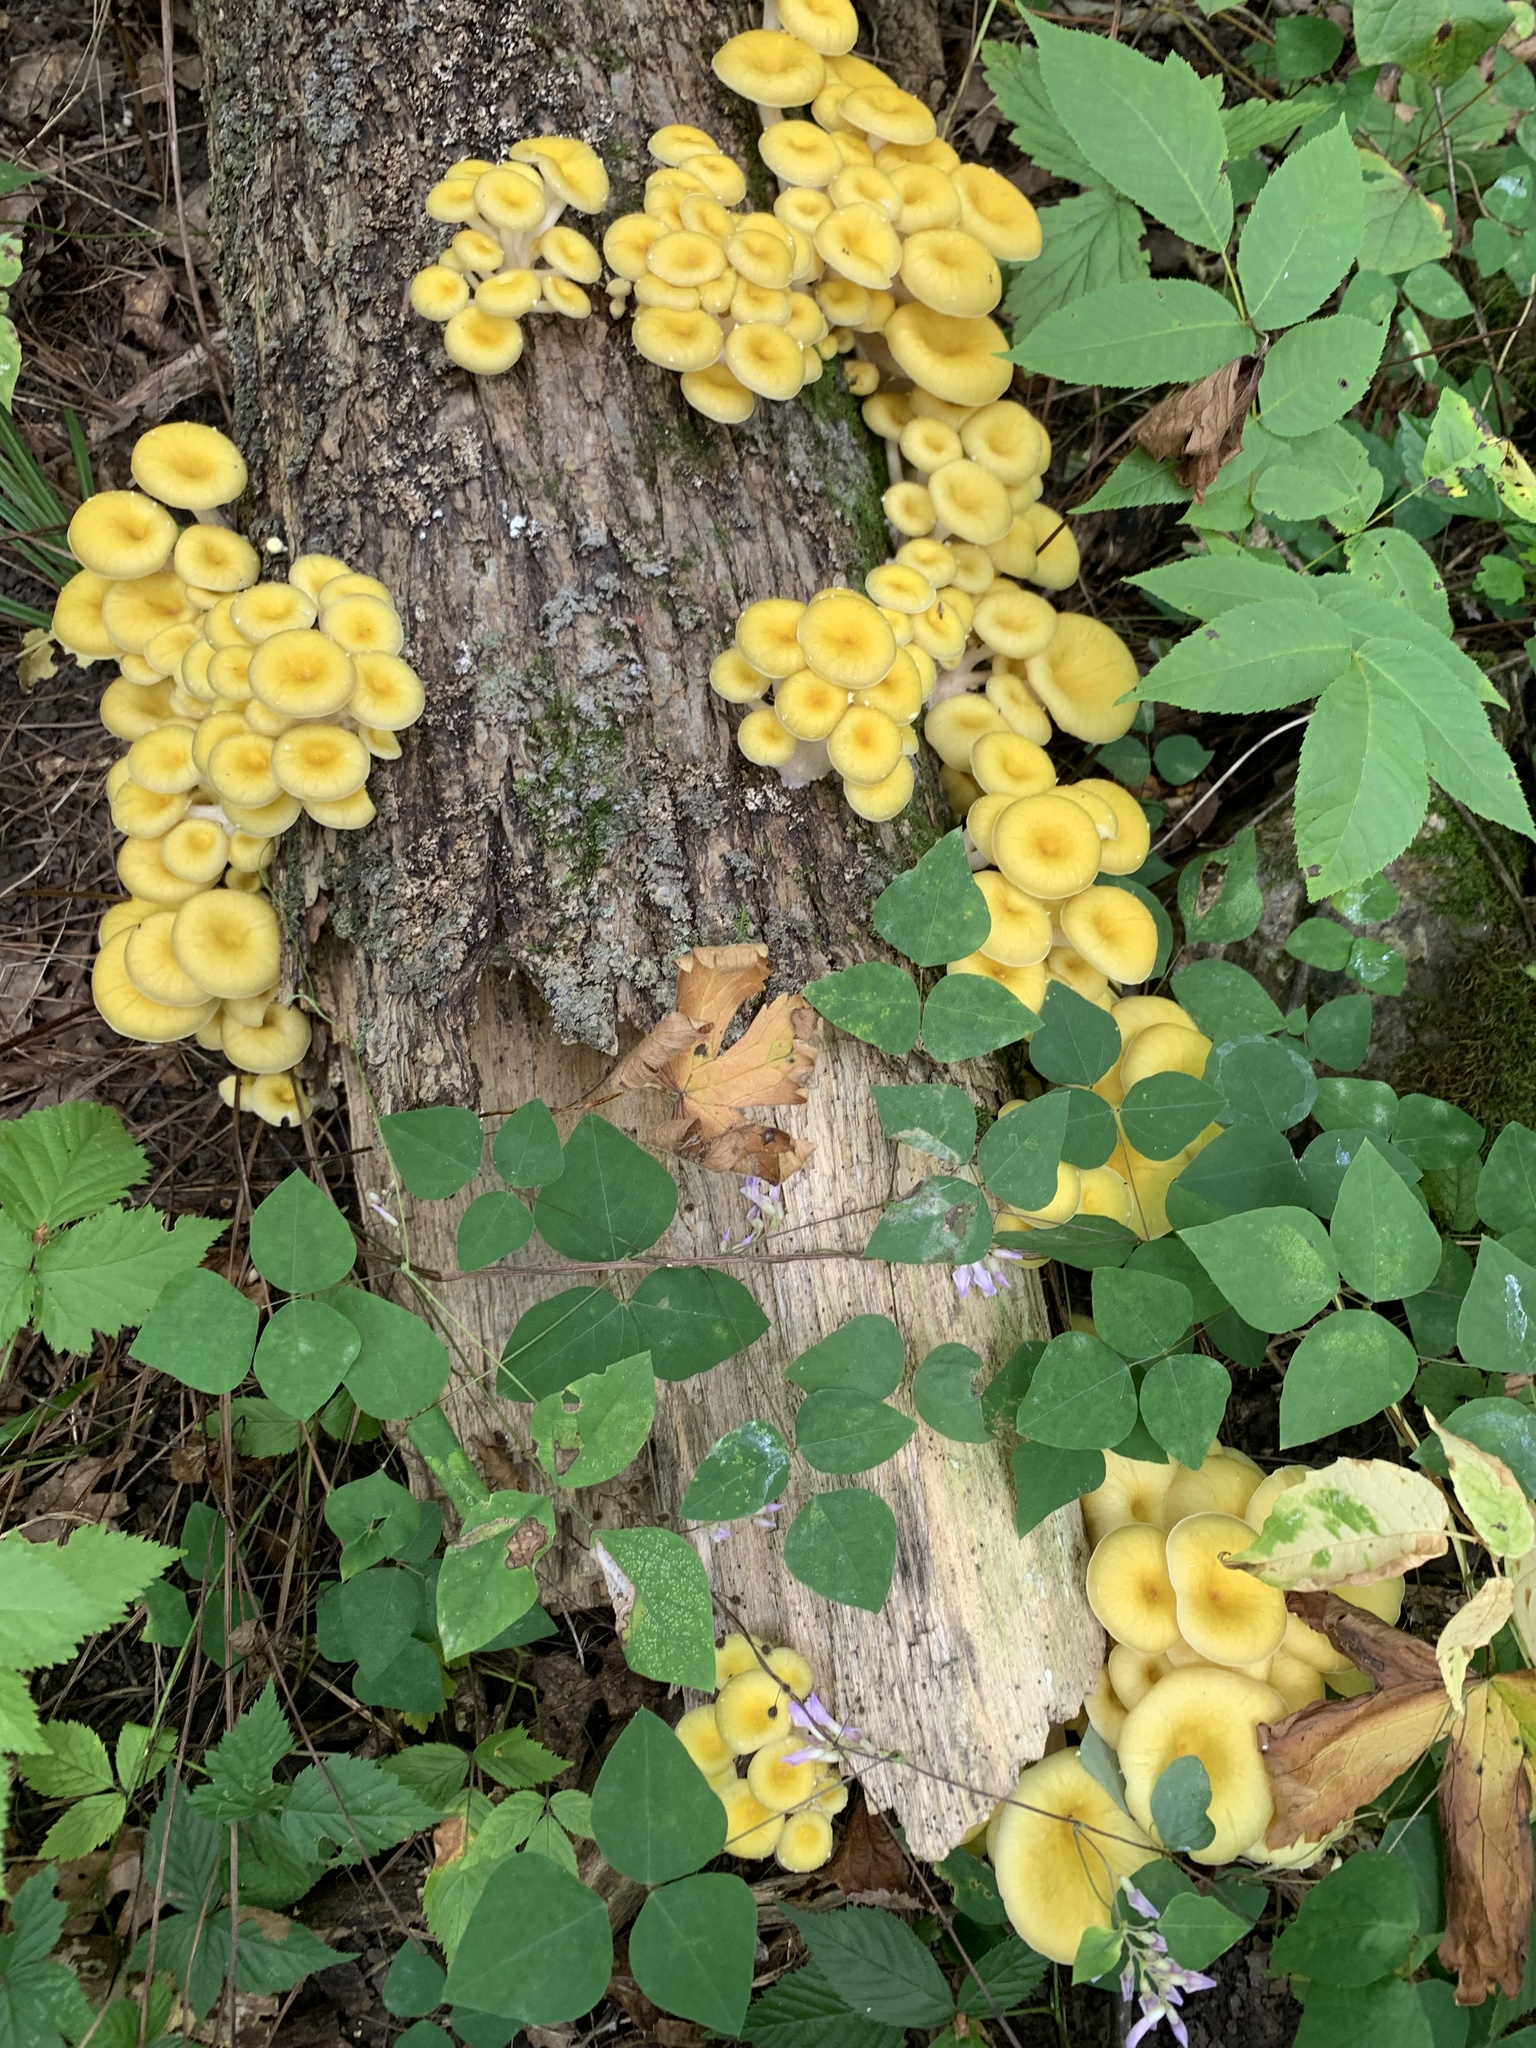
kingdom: Fungi
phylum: Basidiomycota
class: Agaricomycetes
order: Agaricales
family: Pleurotaceae
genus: Pleurotus
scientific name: Pleurotus citrinopileatus
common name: Golden oyster mushroom
